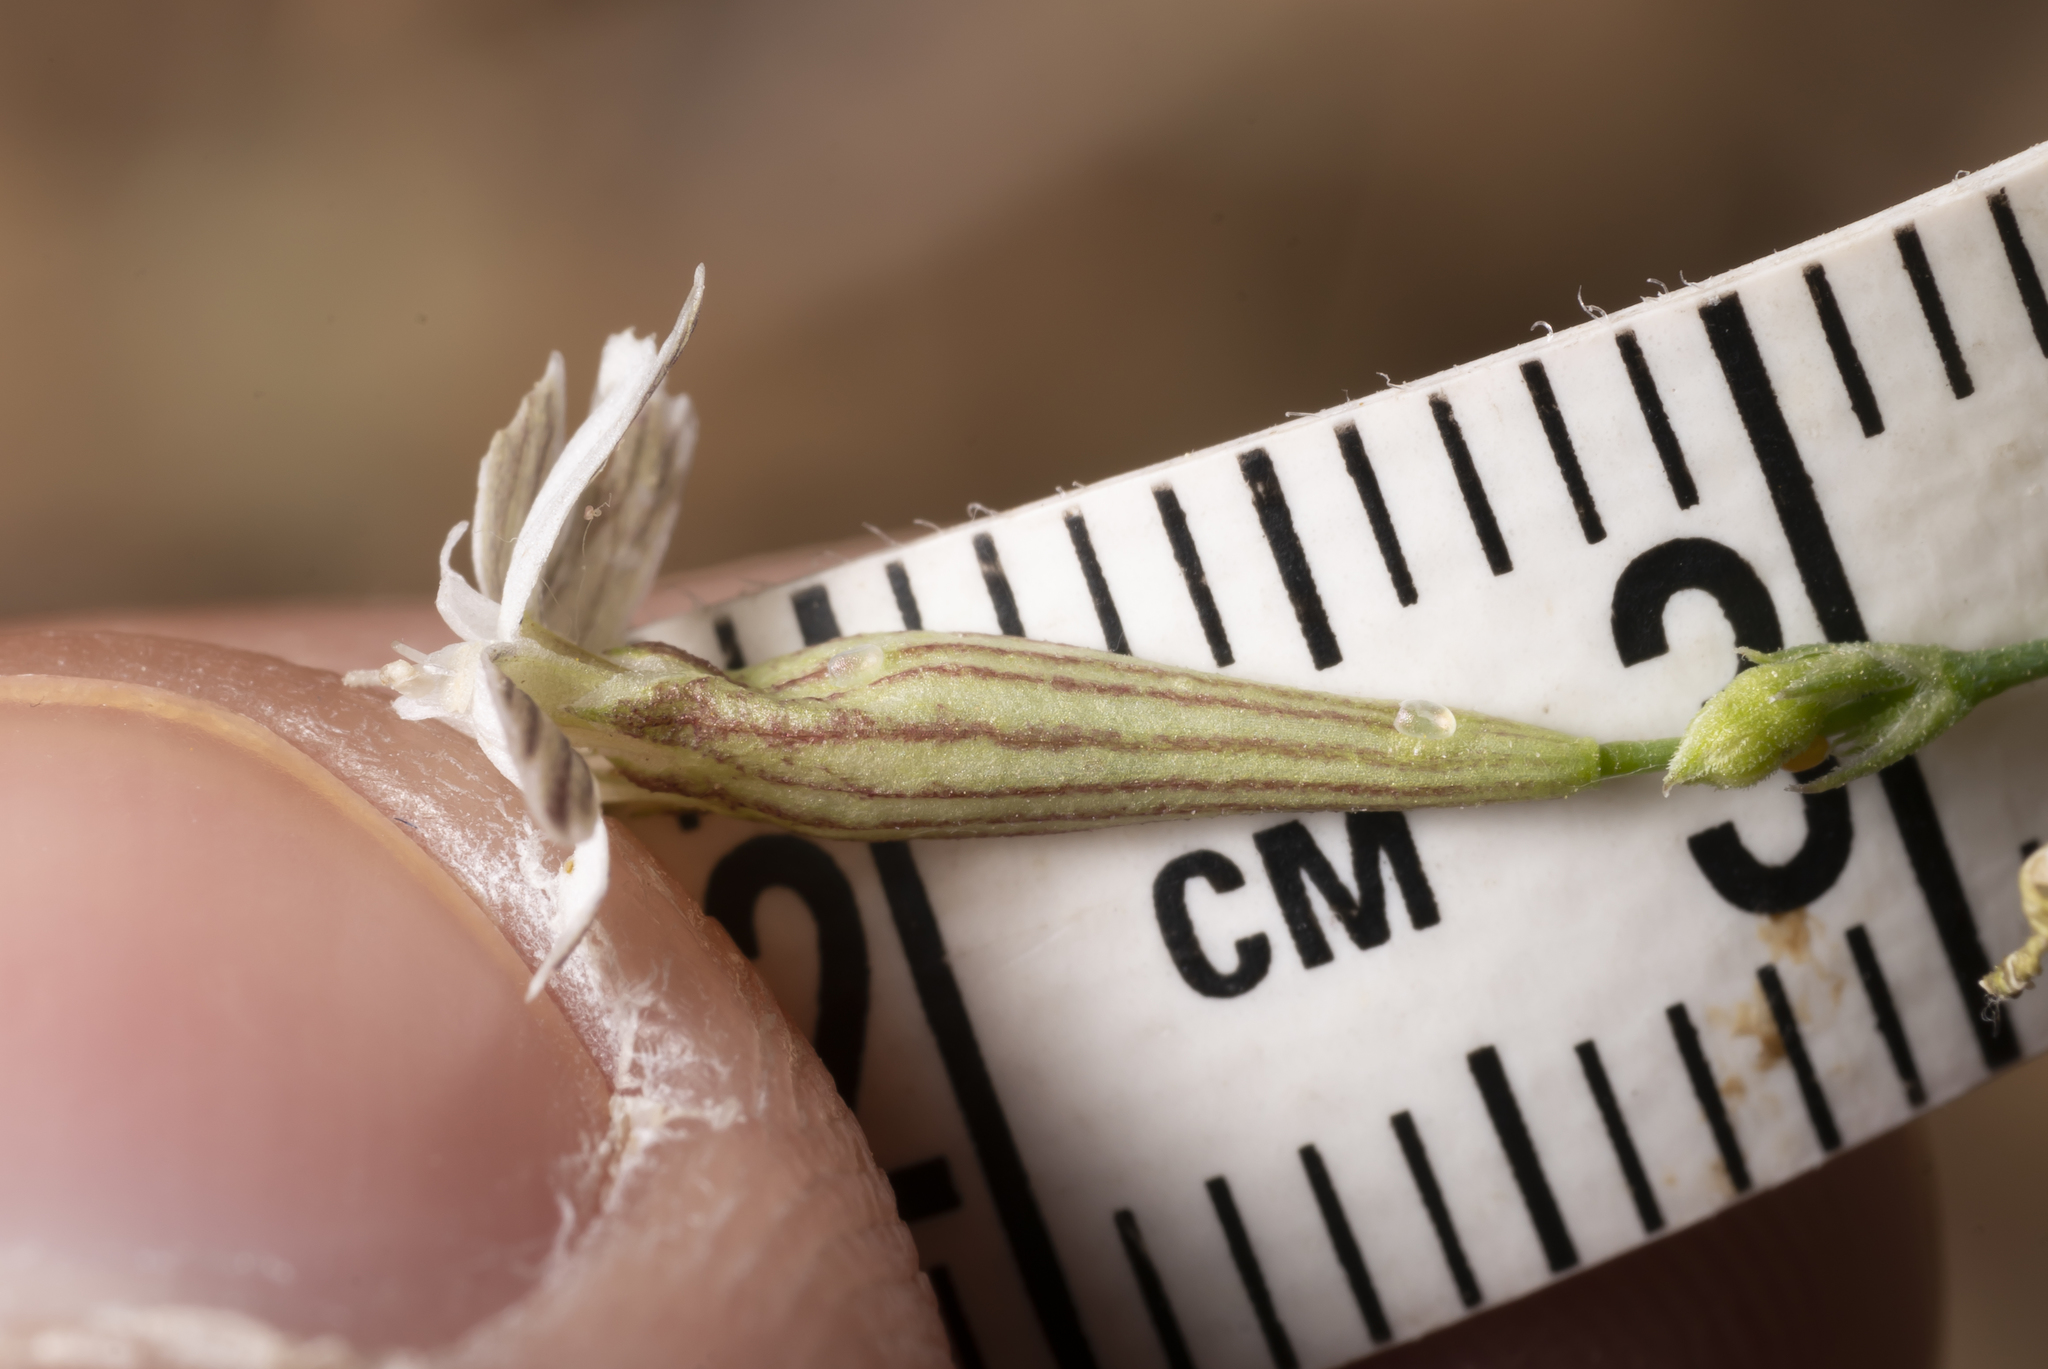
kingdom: Plantae
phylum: Tracheophyta
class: Magnoliopsida
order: Caryophyllales
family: Caryophyllaceae
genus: Silene
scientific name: Silene echinospermoides
